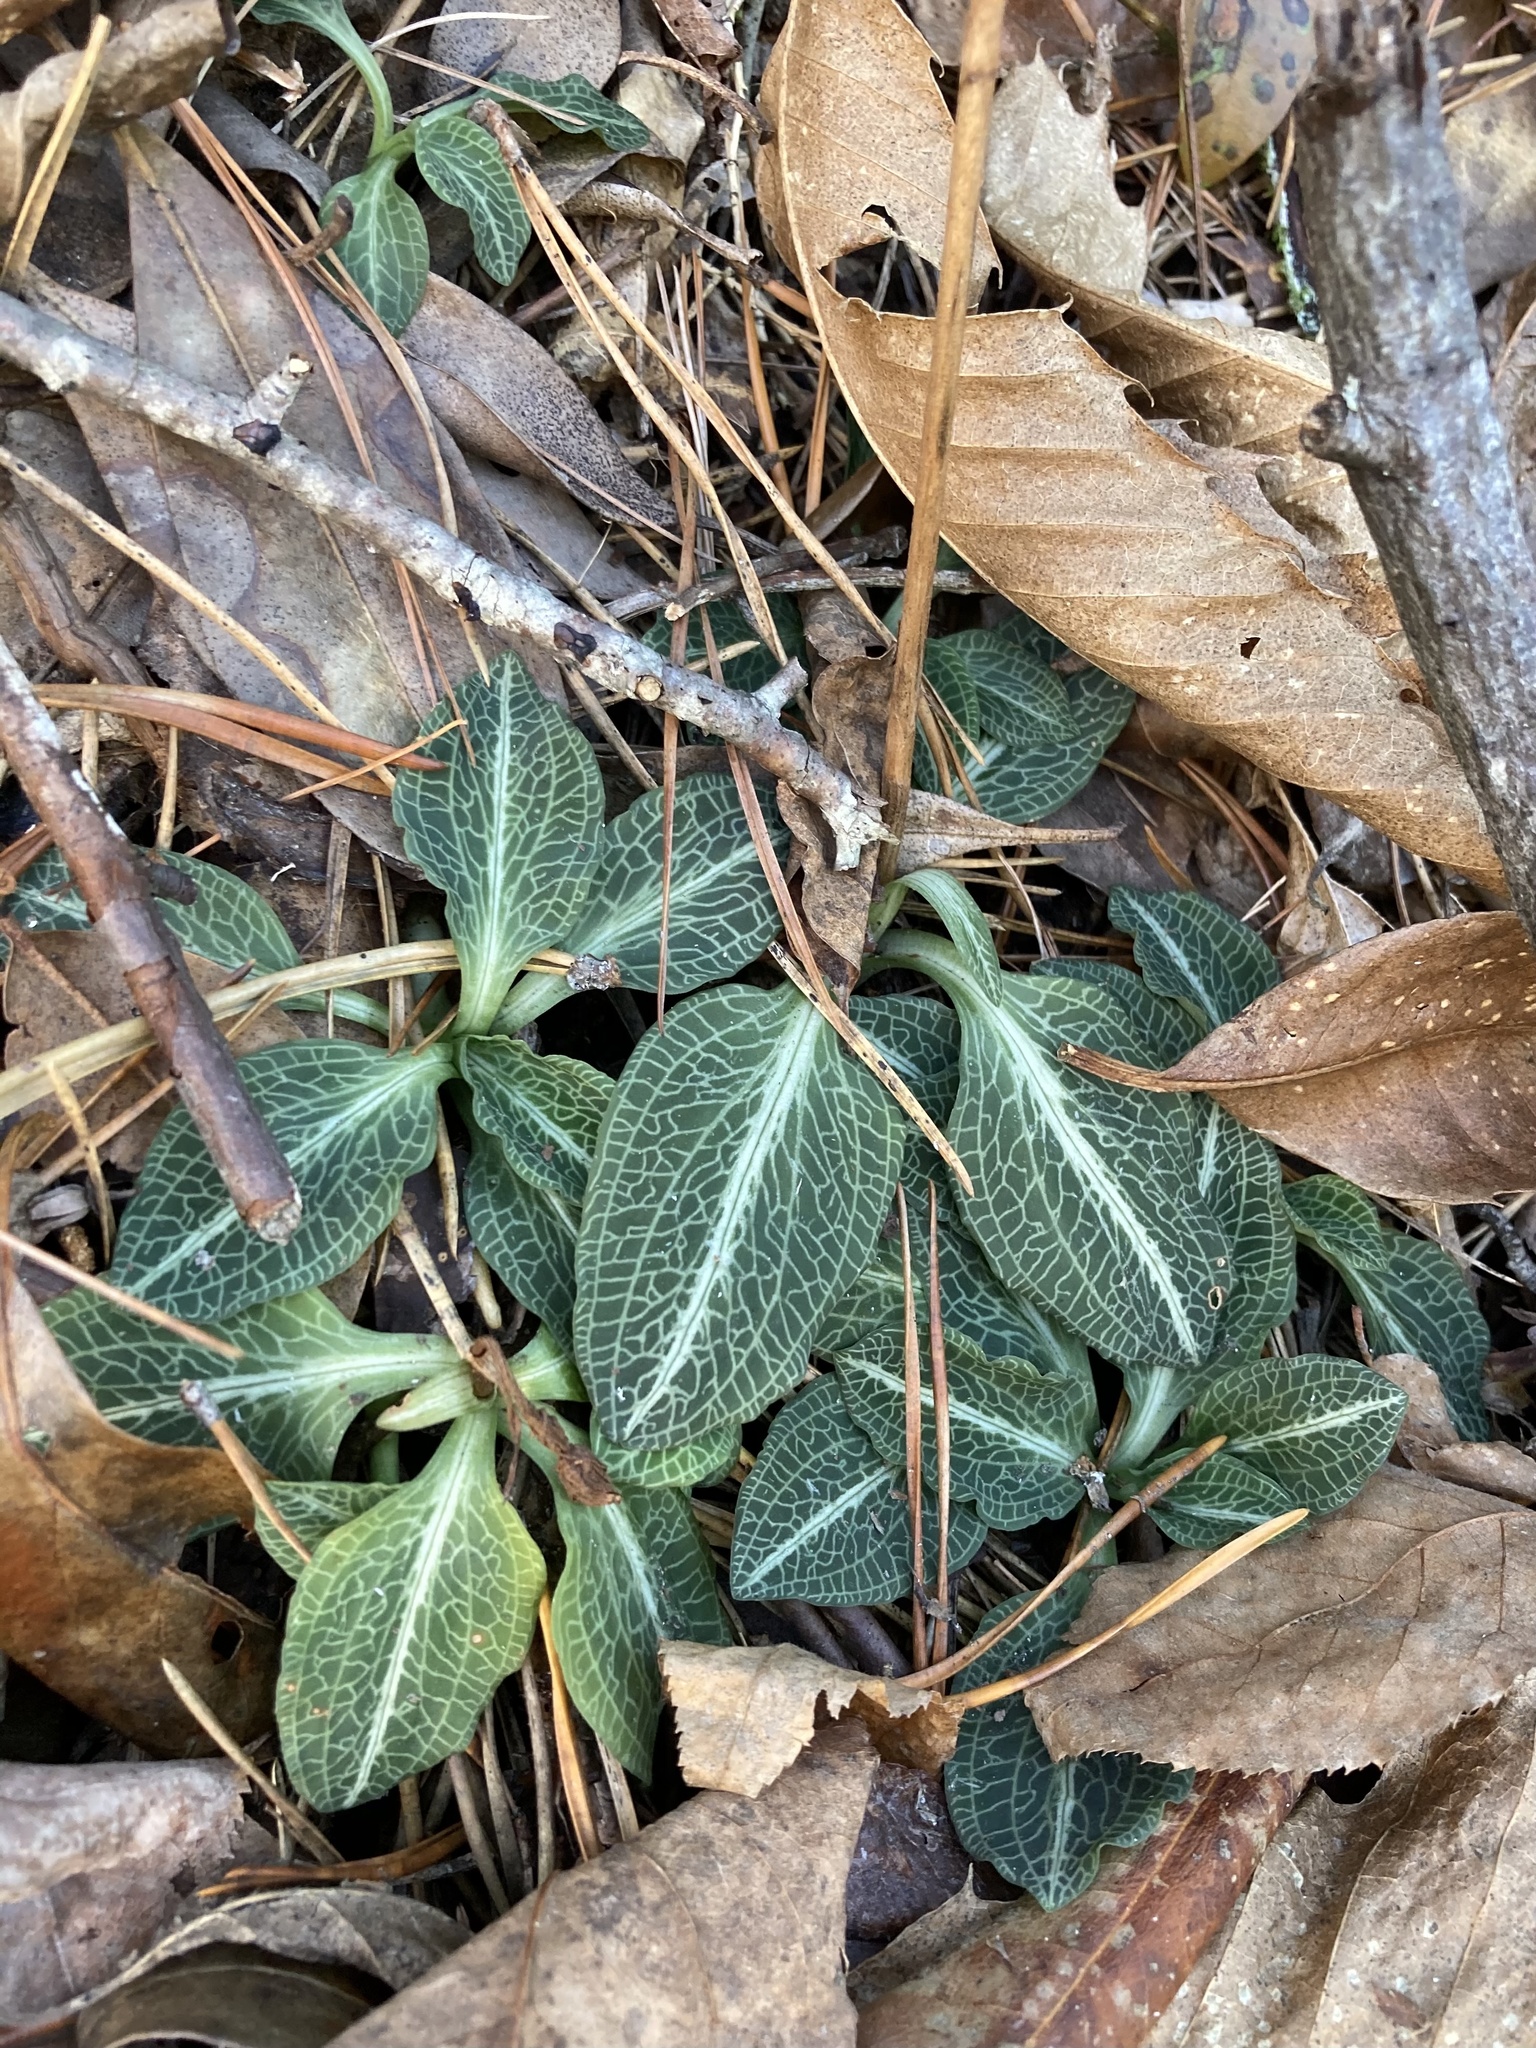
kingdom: Plantae
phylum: Tracheophyta
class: Liliopsida
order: Asparagales
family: Orchidaceae
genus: Goodyera
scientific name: Goodyera pubescens
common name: Downy rattlesnake-plantain
